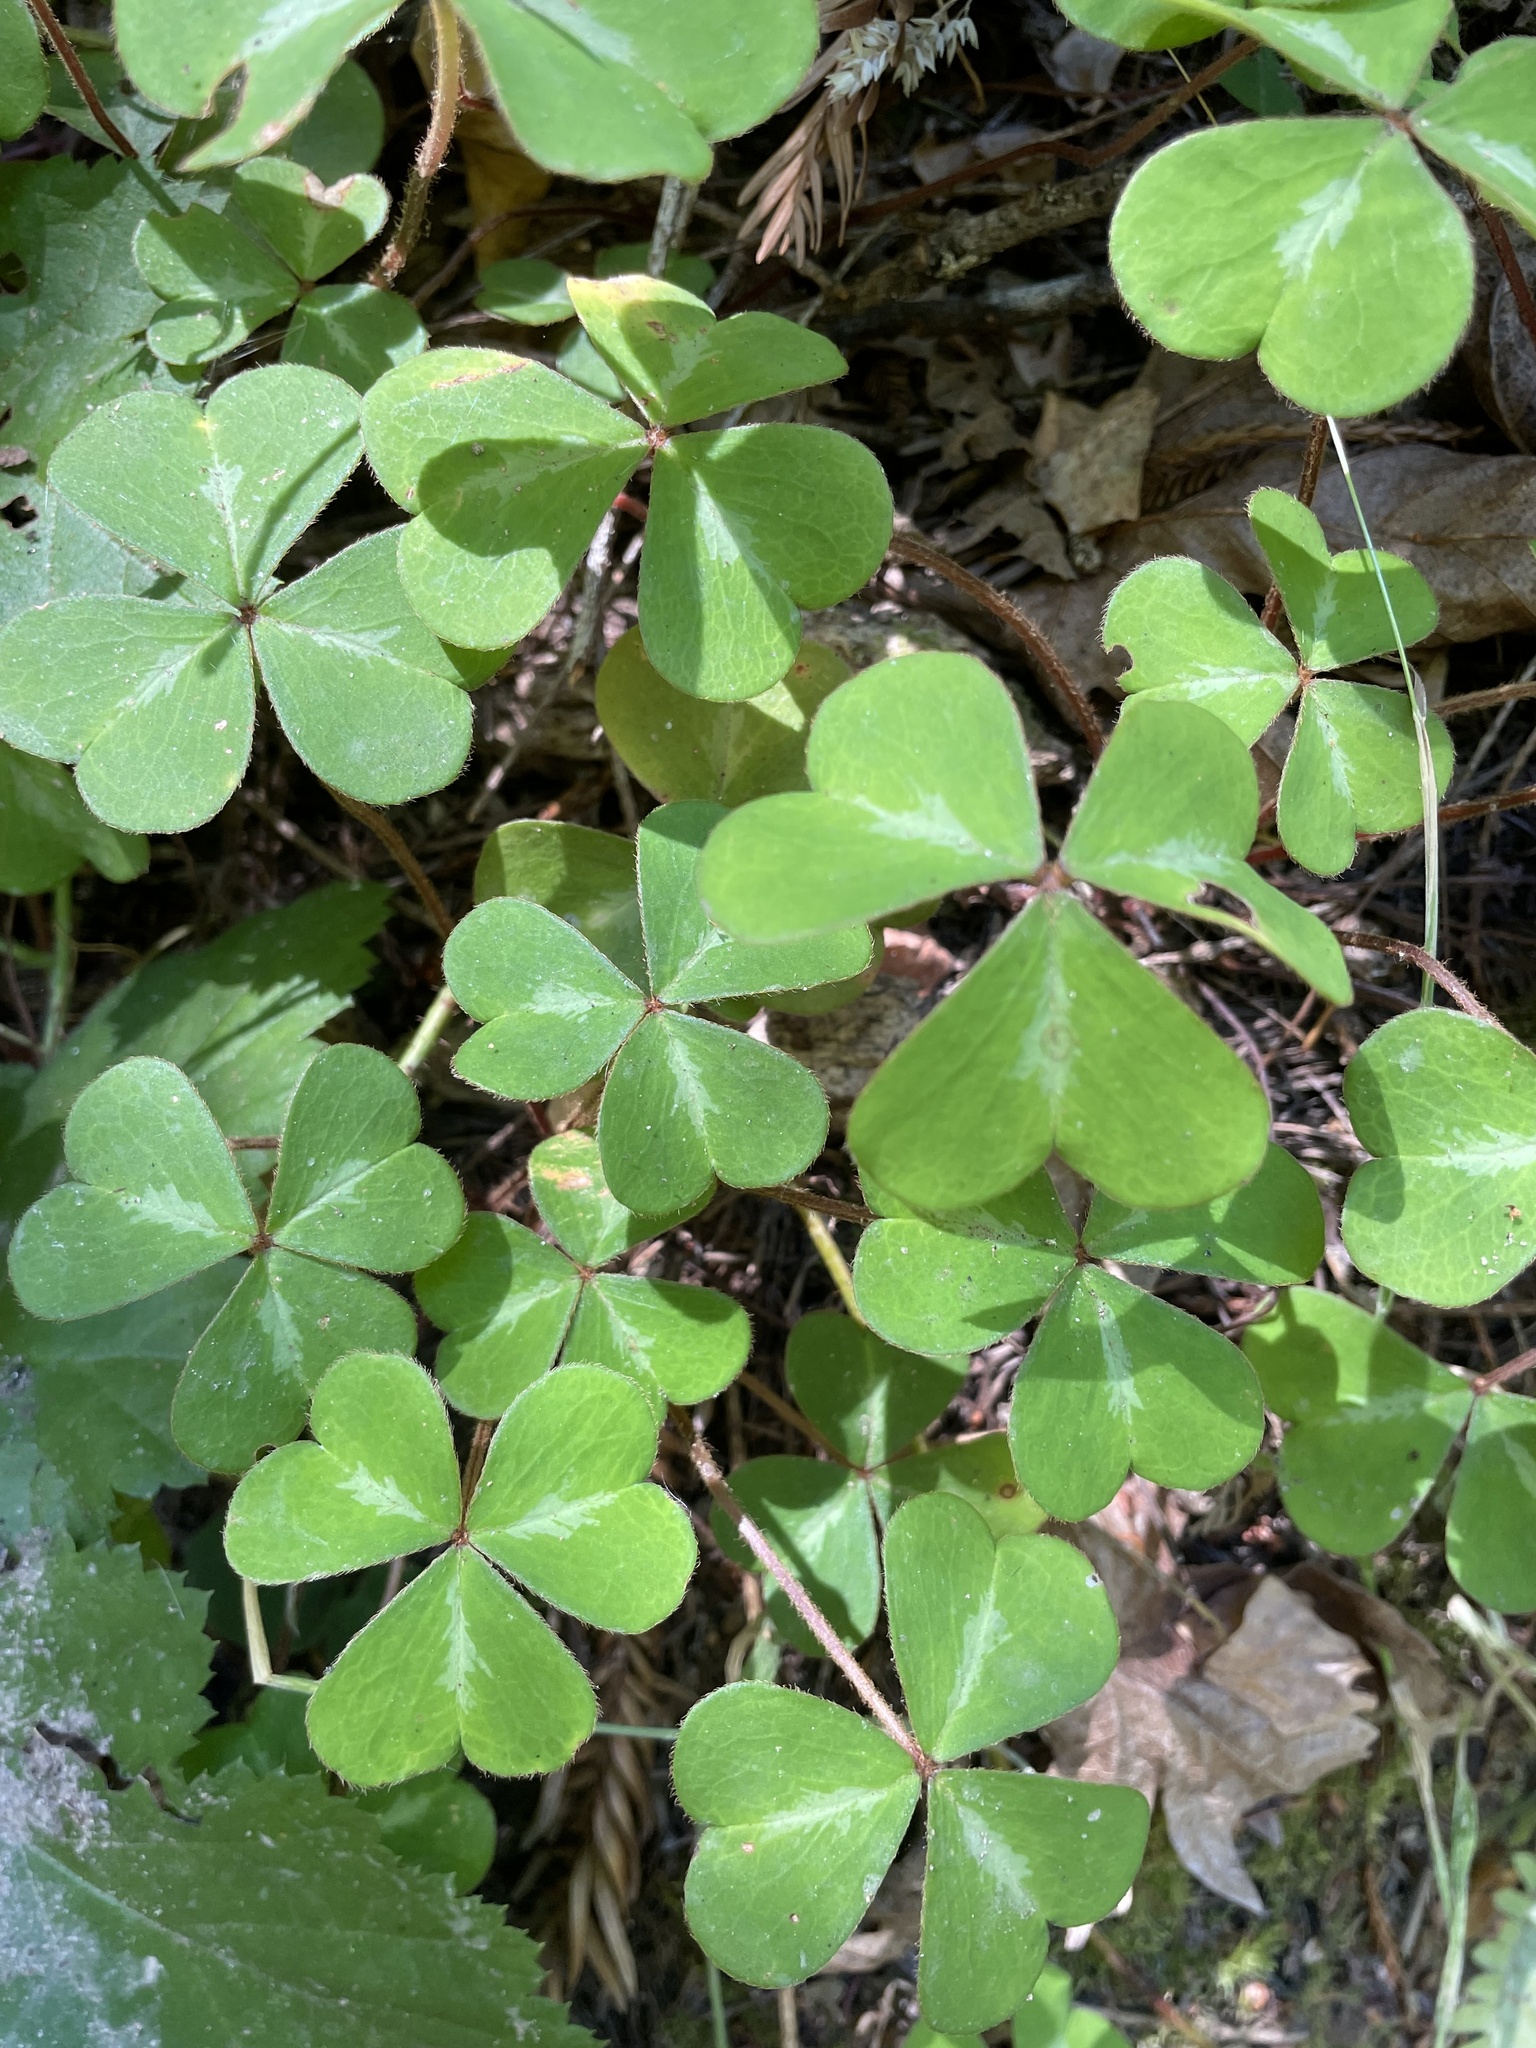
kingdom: Plantae
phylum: Tracheophyta
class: Magnoliopsida
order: Oxalidales
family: Oxalidaceae
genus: Oxalis
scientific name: Oxalis oregana
